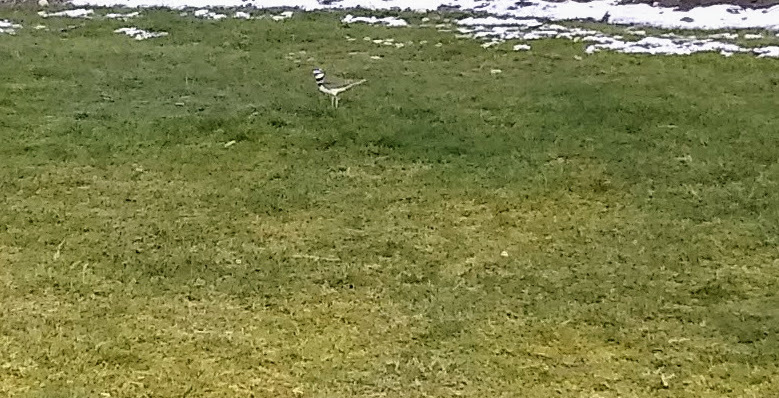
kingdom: Animalia
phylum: Chordata
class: Aves
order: Charadriiformes
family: Charadriidae
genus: Charadrius
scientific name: Charadrius vociferus
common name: Killdeer
